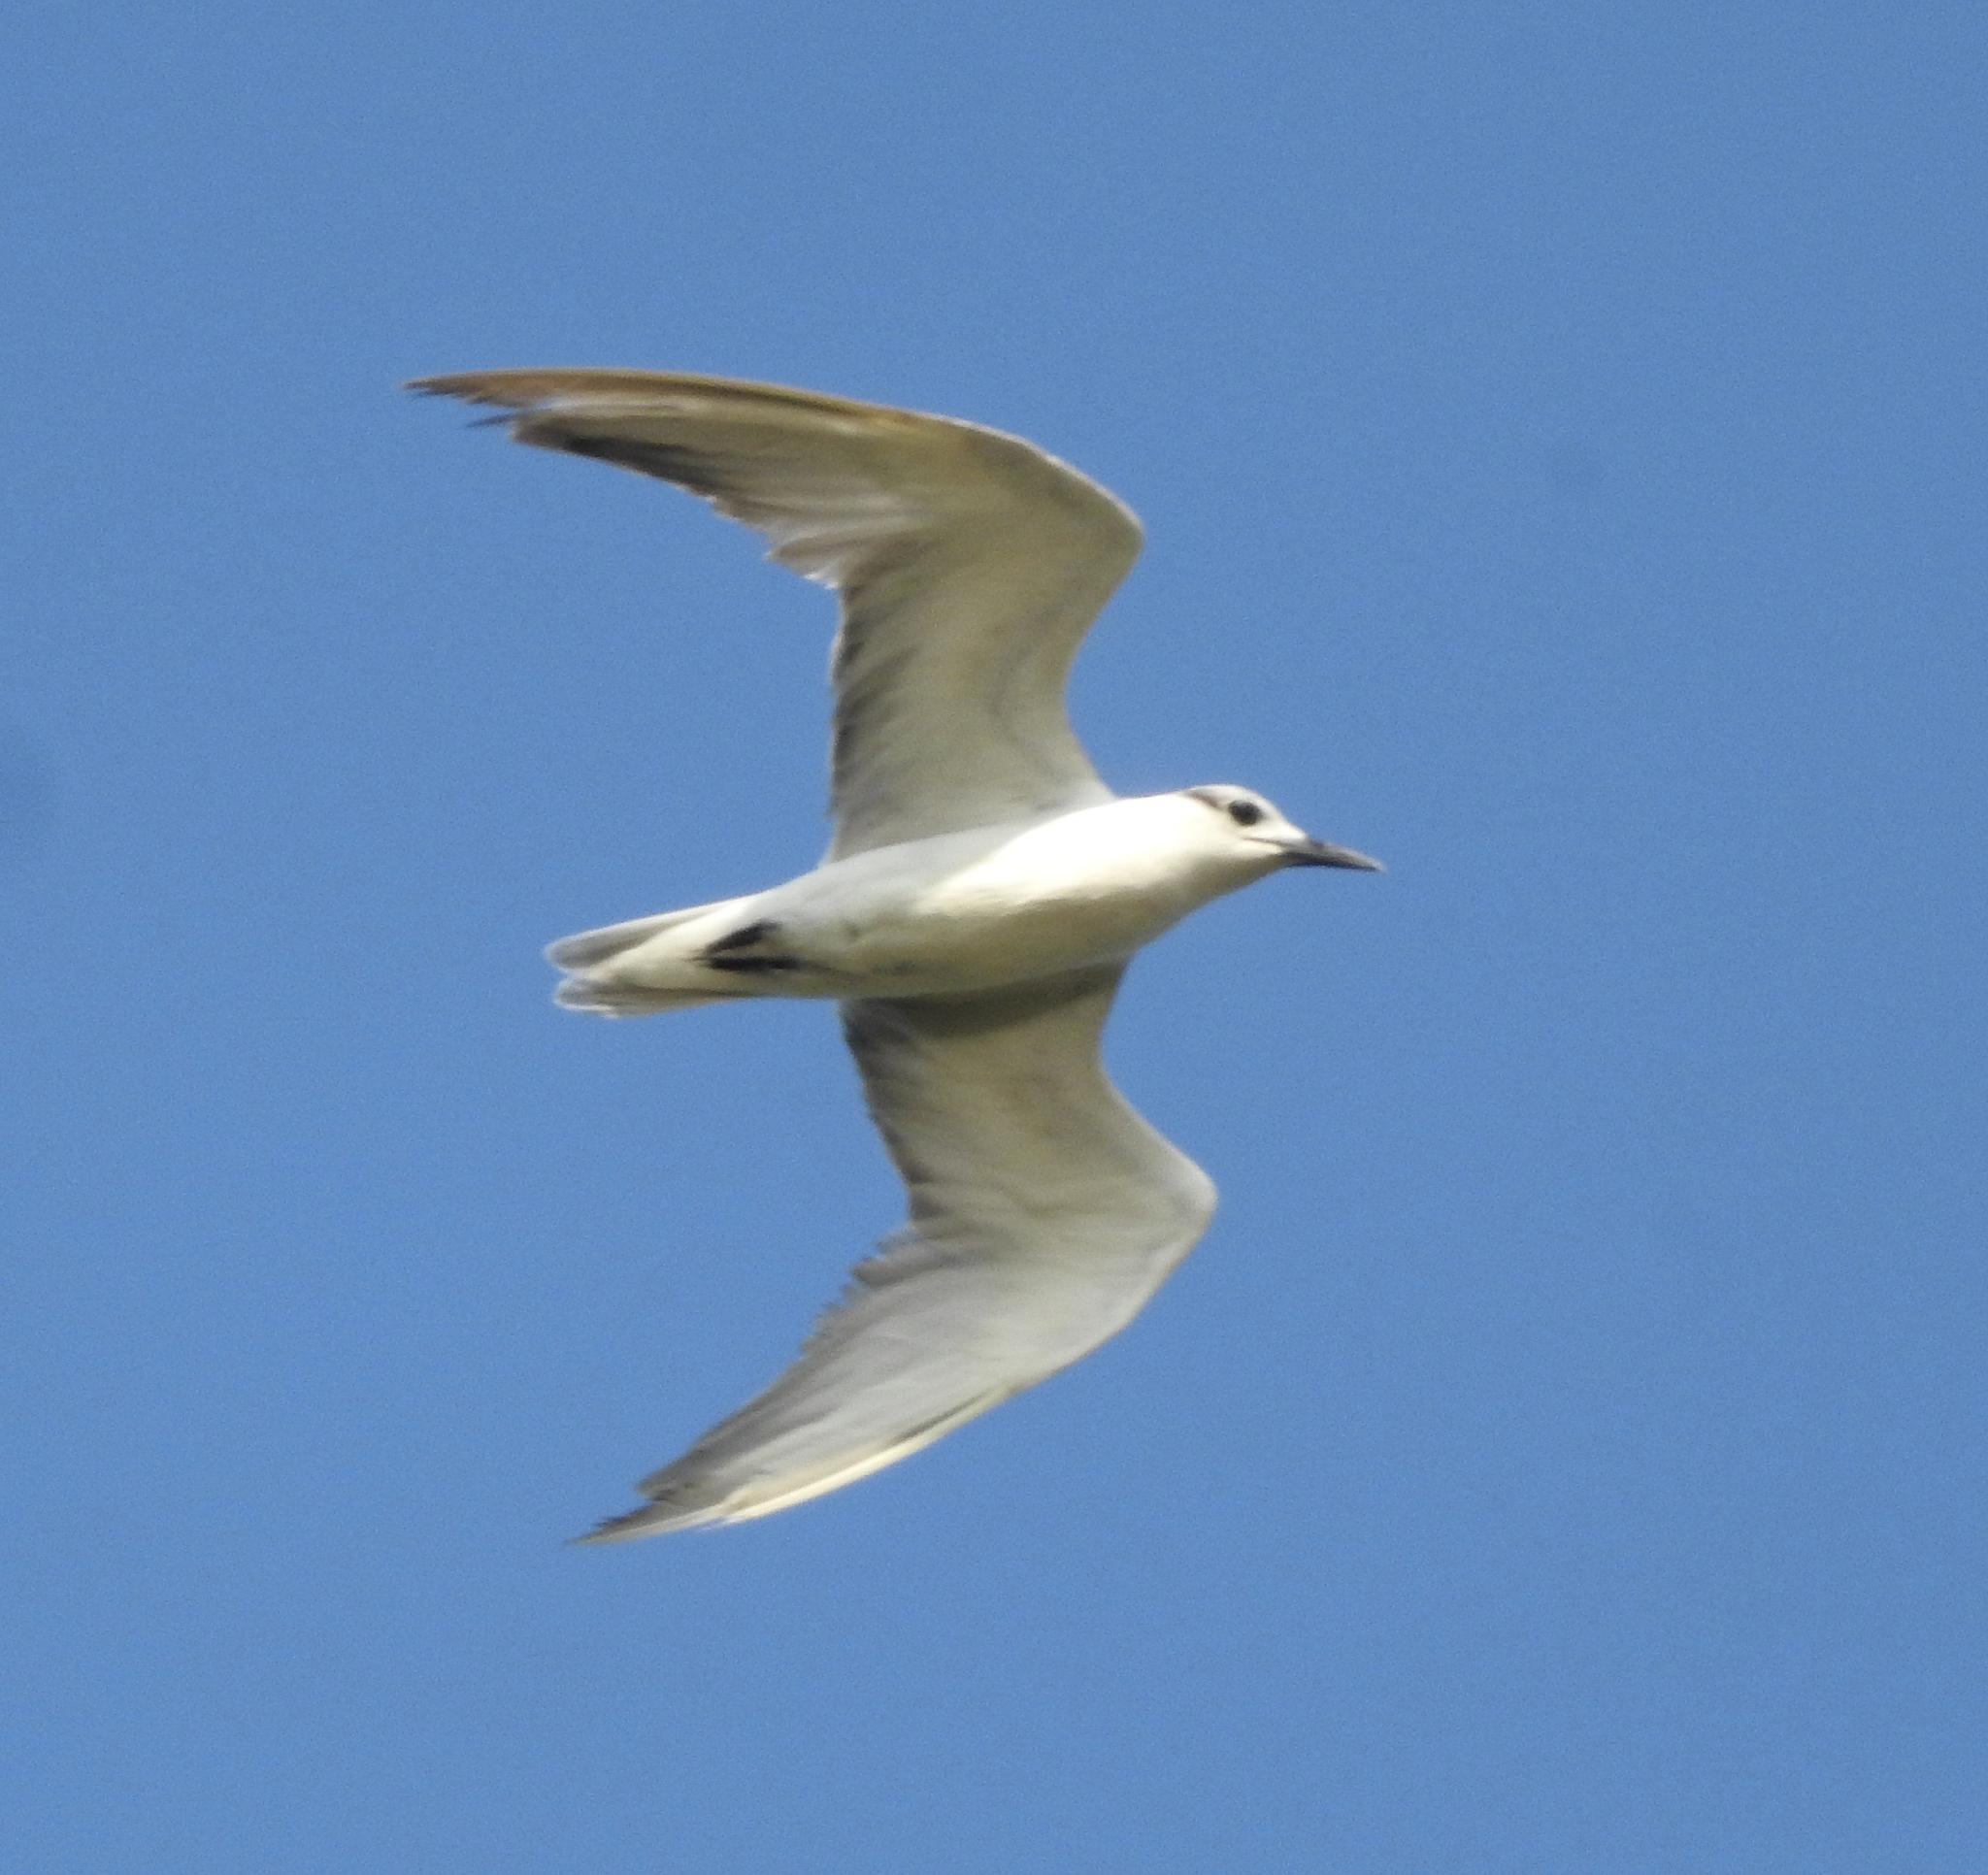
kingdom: Animalia
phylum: Chordata
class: Aves
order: Charadriiformes
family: Laridae
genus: Chlidonias
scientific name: Chlidonias hybrida
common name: Whiskered tern
